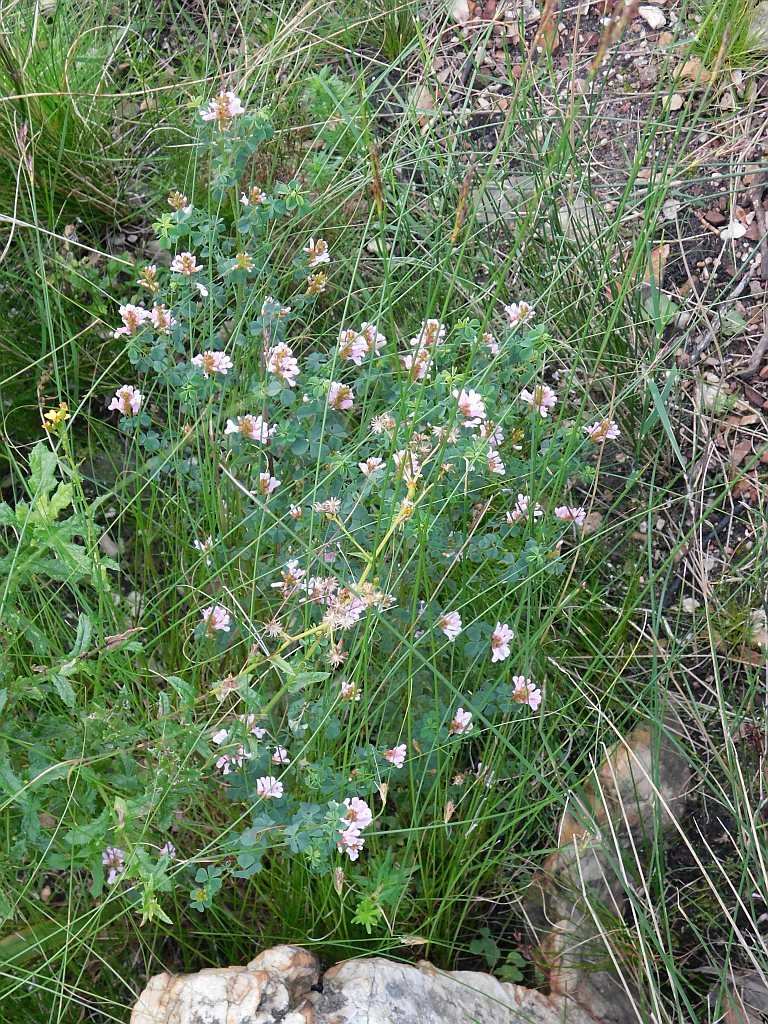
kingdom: Plantae
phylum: Tracheophyta
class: Magnoliopsida
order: Fabales
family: Fabaceae
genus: Hypocalyptus
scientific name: Hypocalyptus oxalidifolius
